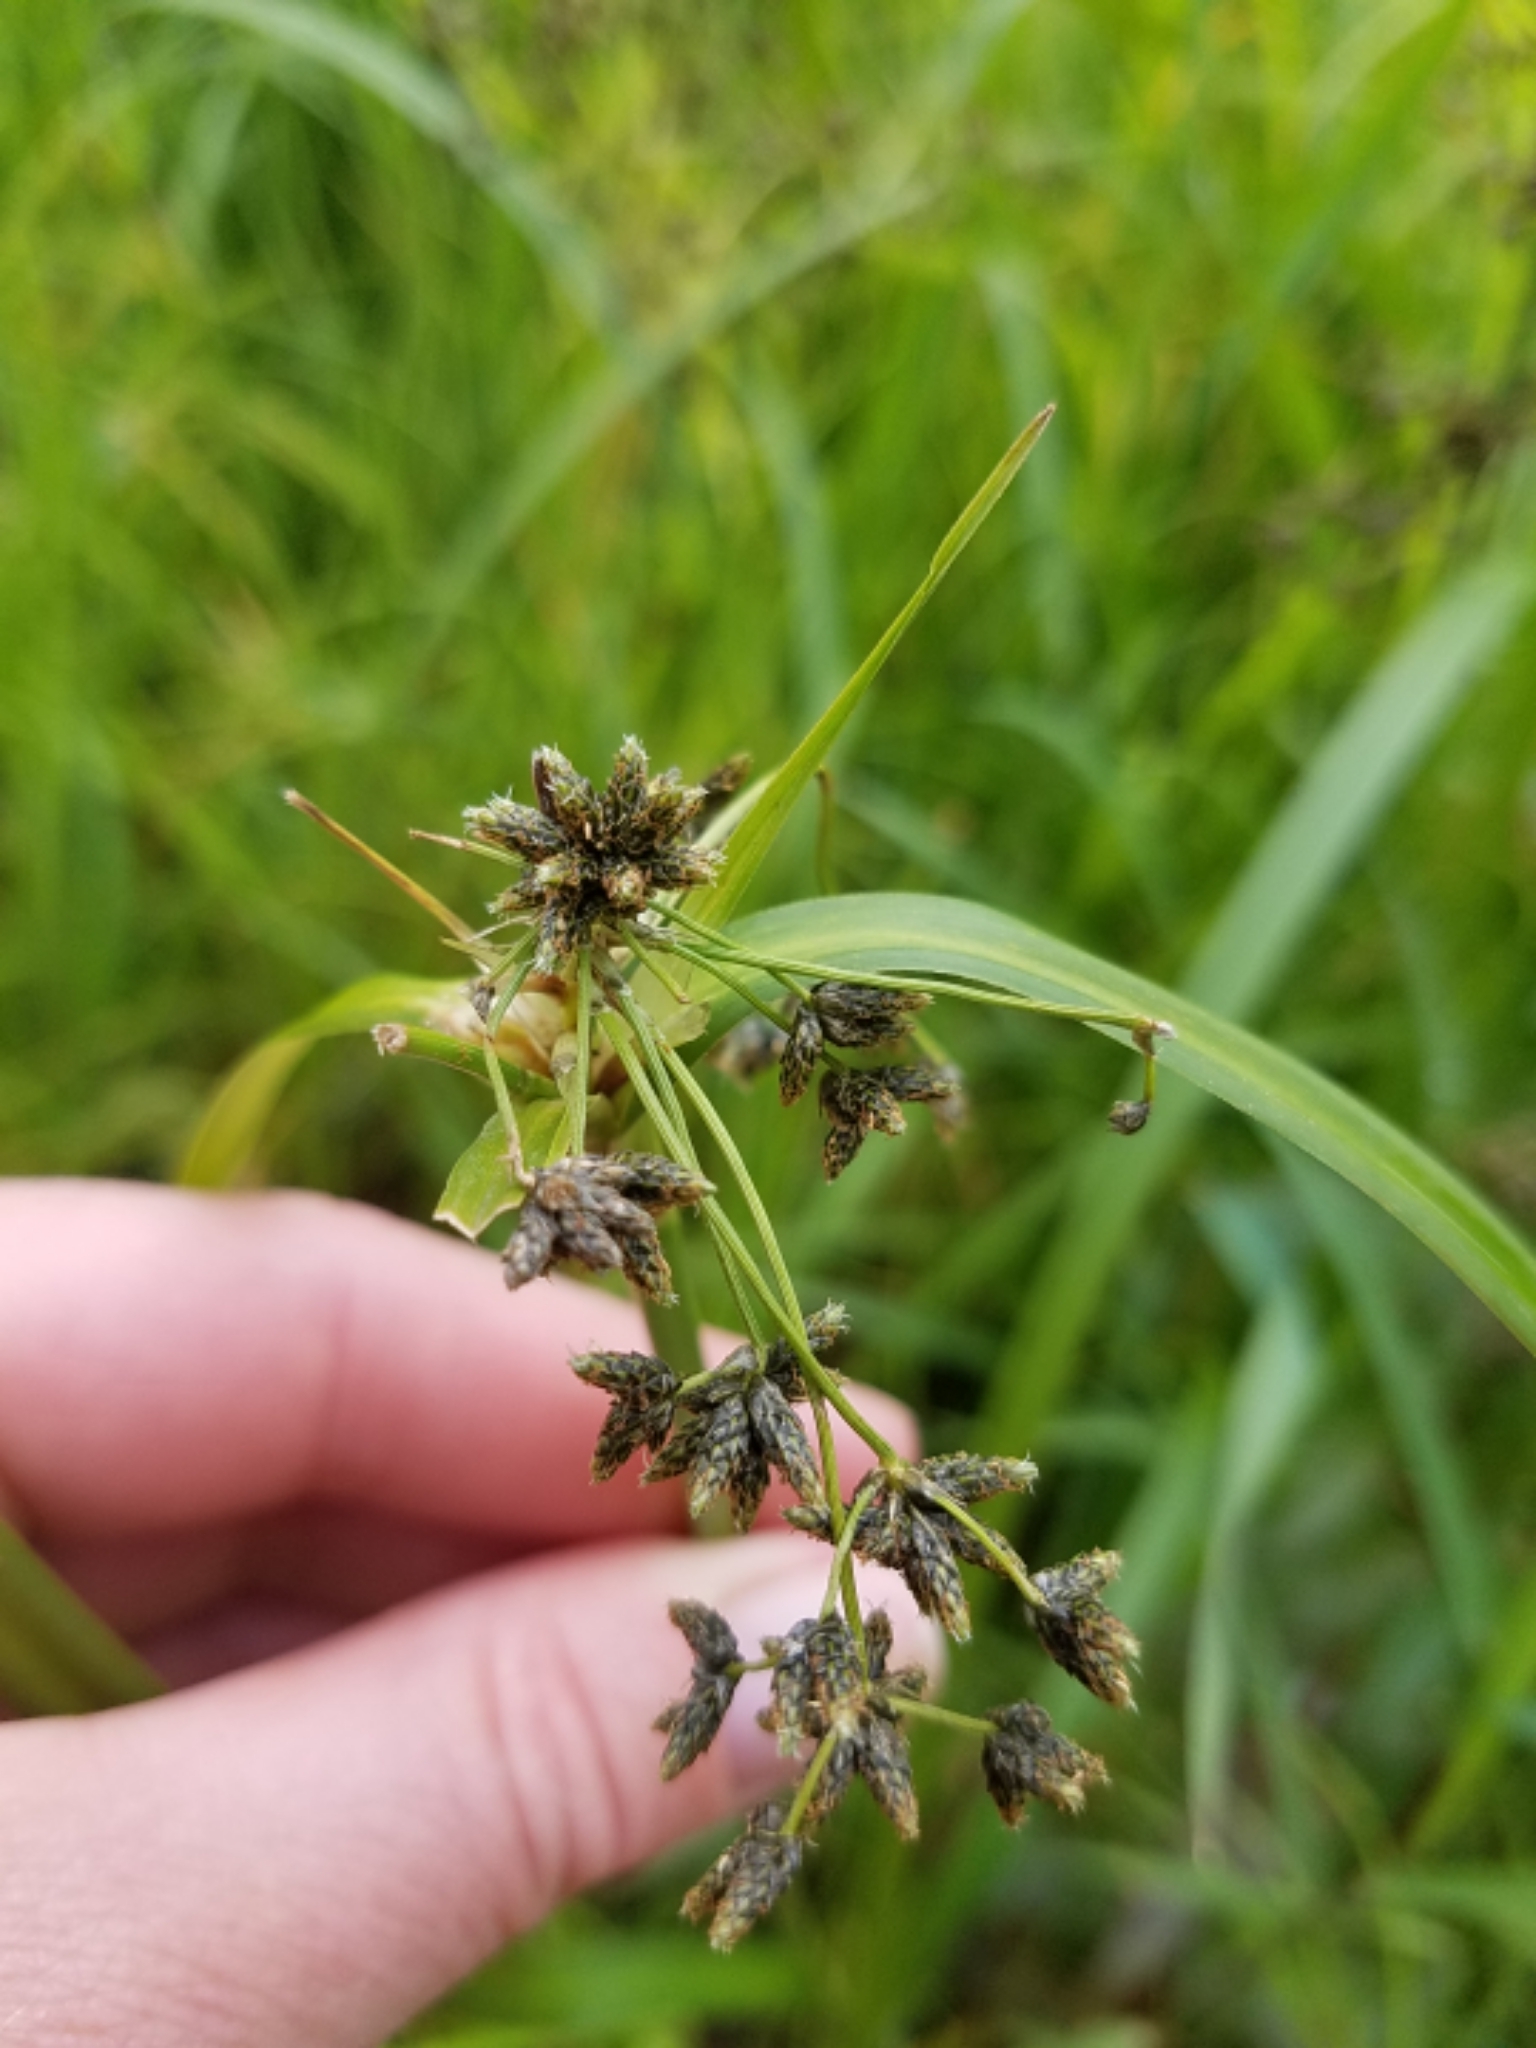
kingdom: Plantae
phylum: Tracheophyta
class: Liliopsida
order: Poales
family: Cyperaceae
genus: Scirpus
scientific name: Scirpus microcarpus
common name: Panicled bulrush
